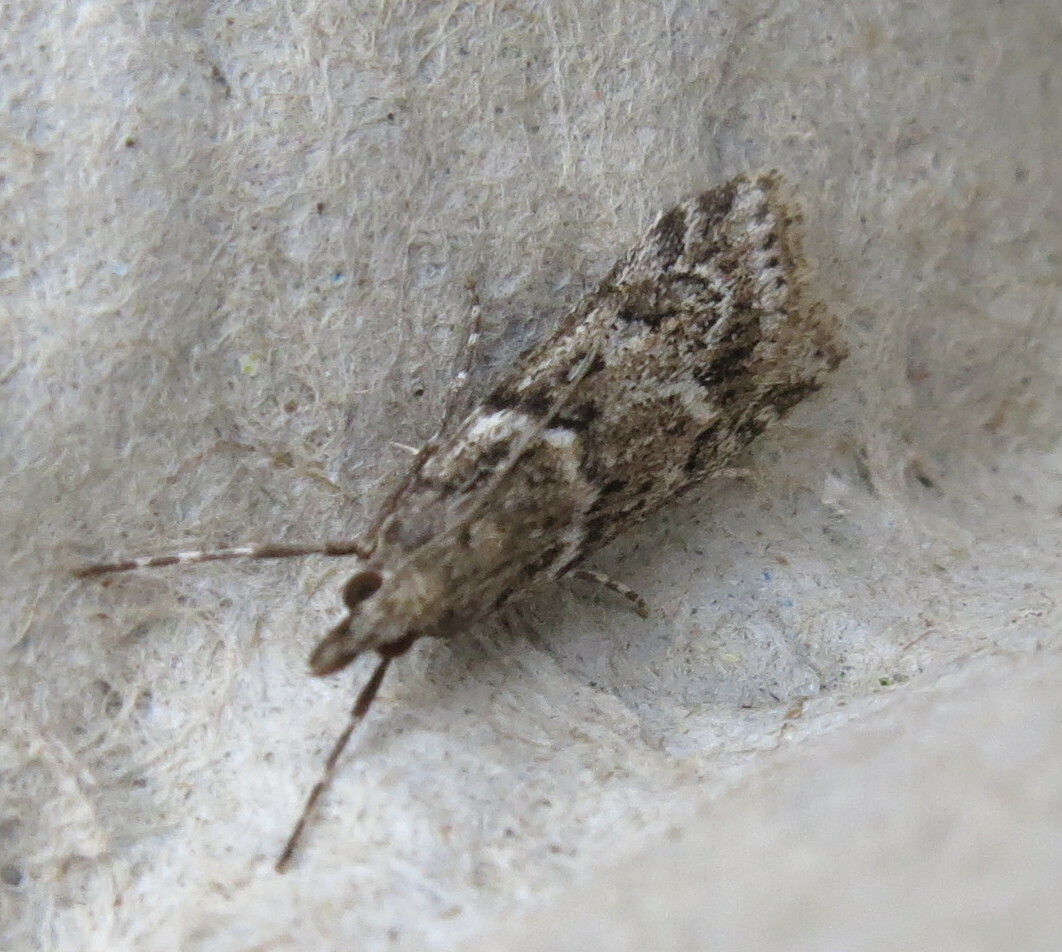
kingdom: Animalia
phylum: Arthropoda
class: Insecta
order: Lepidoptera
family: Crambidae
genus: Eudonia
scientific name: Eudonia angustea
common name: Narrow-winged grey
